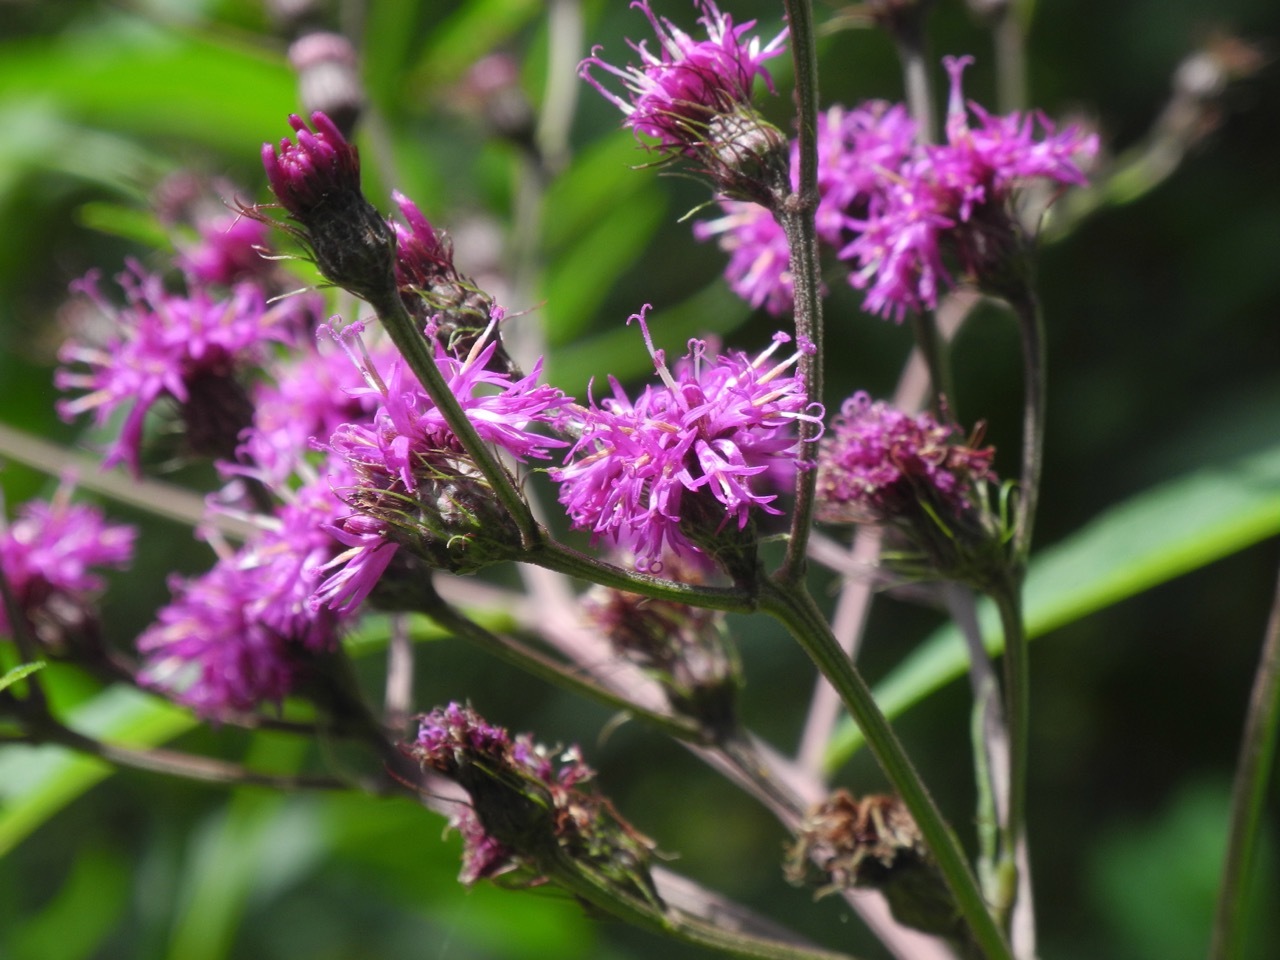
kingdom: Plantae
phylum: Tracheophyta
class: Magnoliopsida
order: Asterales
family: Asteraceae
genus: Vernonia
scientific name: Vernonia noveboracensis
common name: New york ironweed
